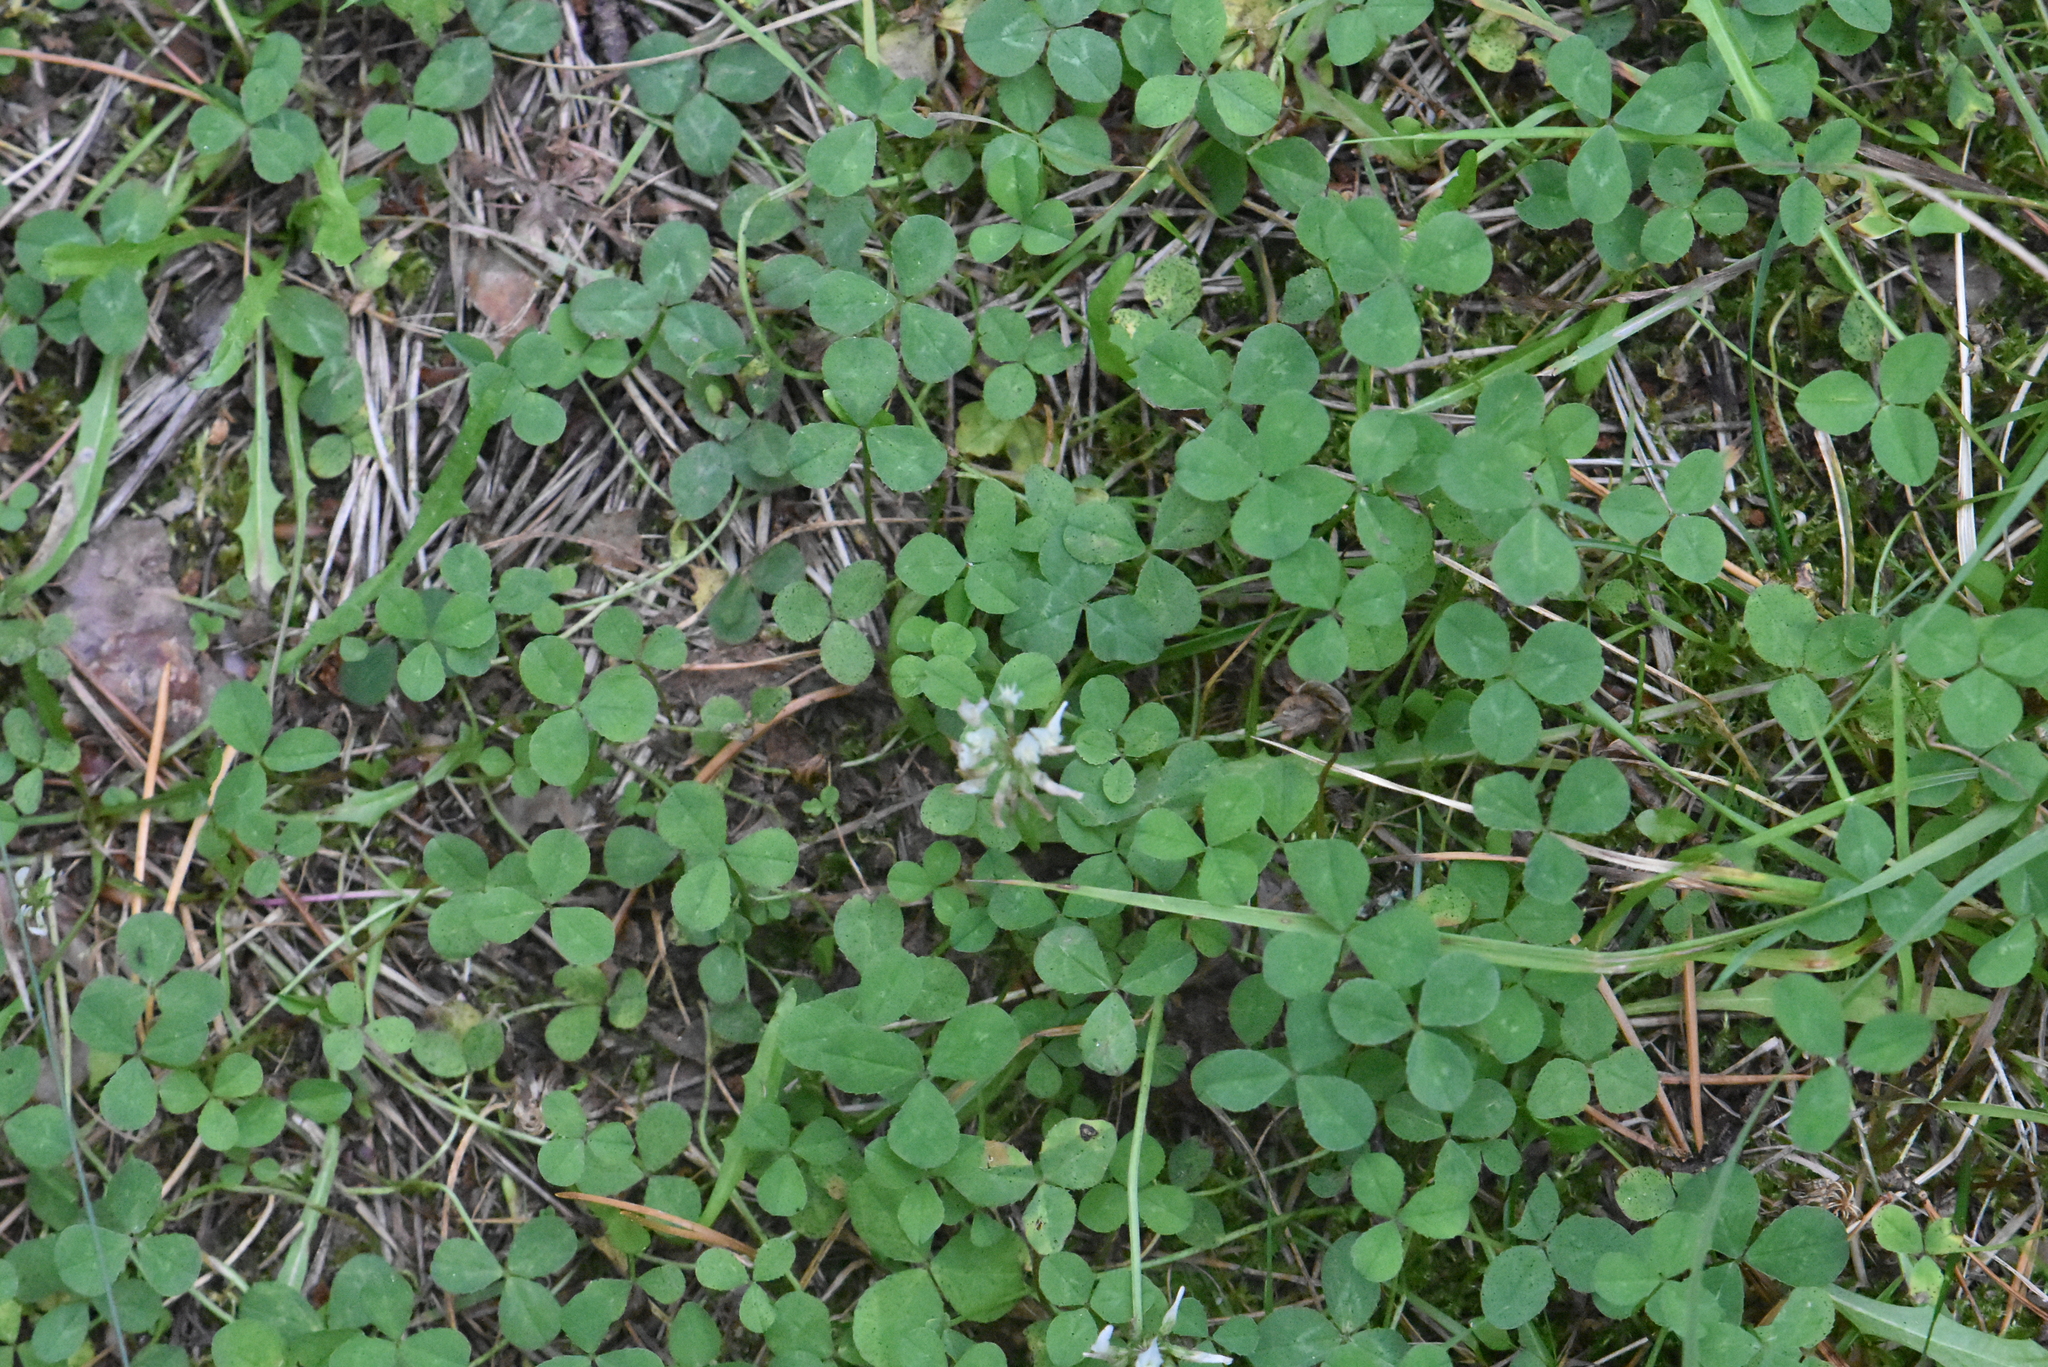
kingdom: Plantae
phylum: Tracheophyta
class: Magnoliopsida
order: Fabales
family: Fabaceae
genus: Trifolium
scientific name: Trifolium repens
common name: White clover
